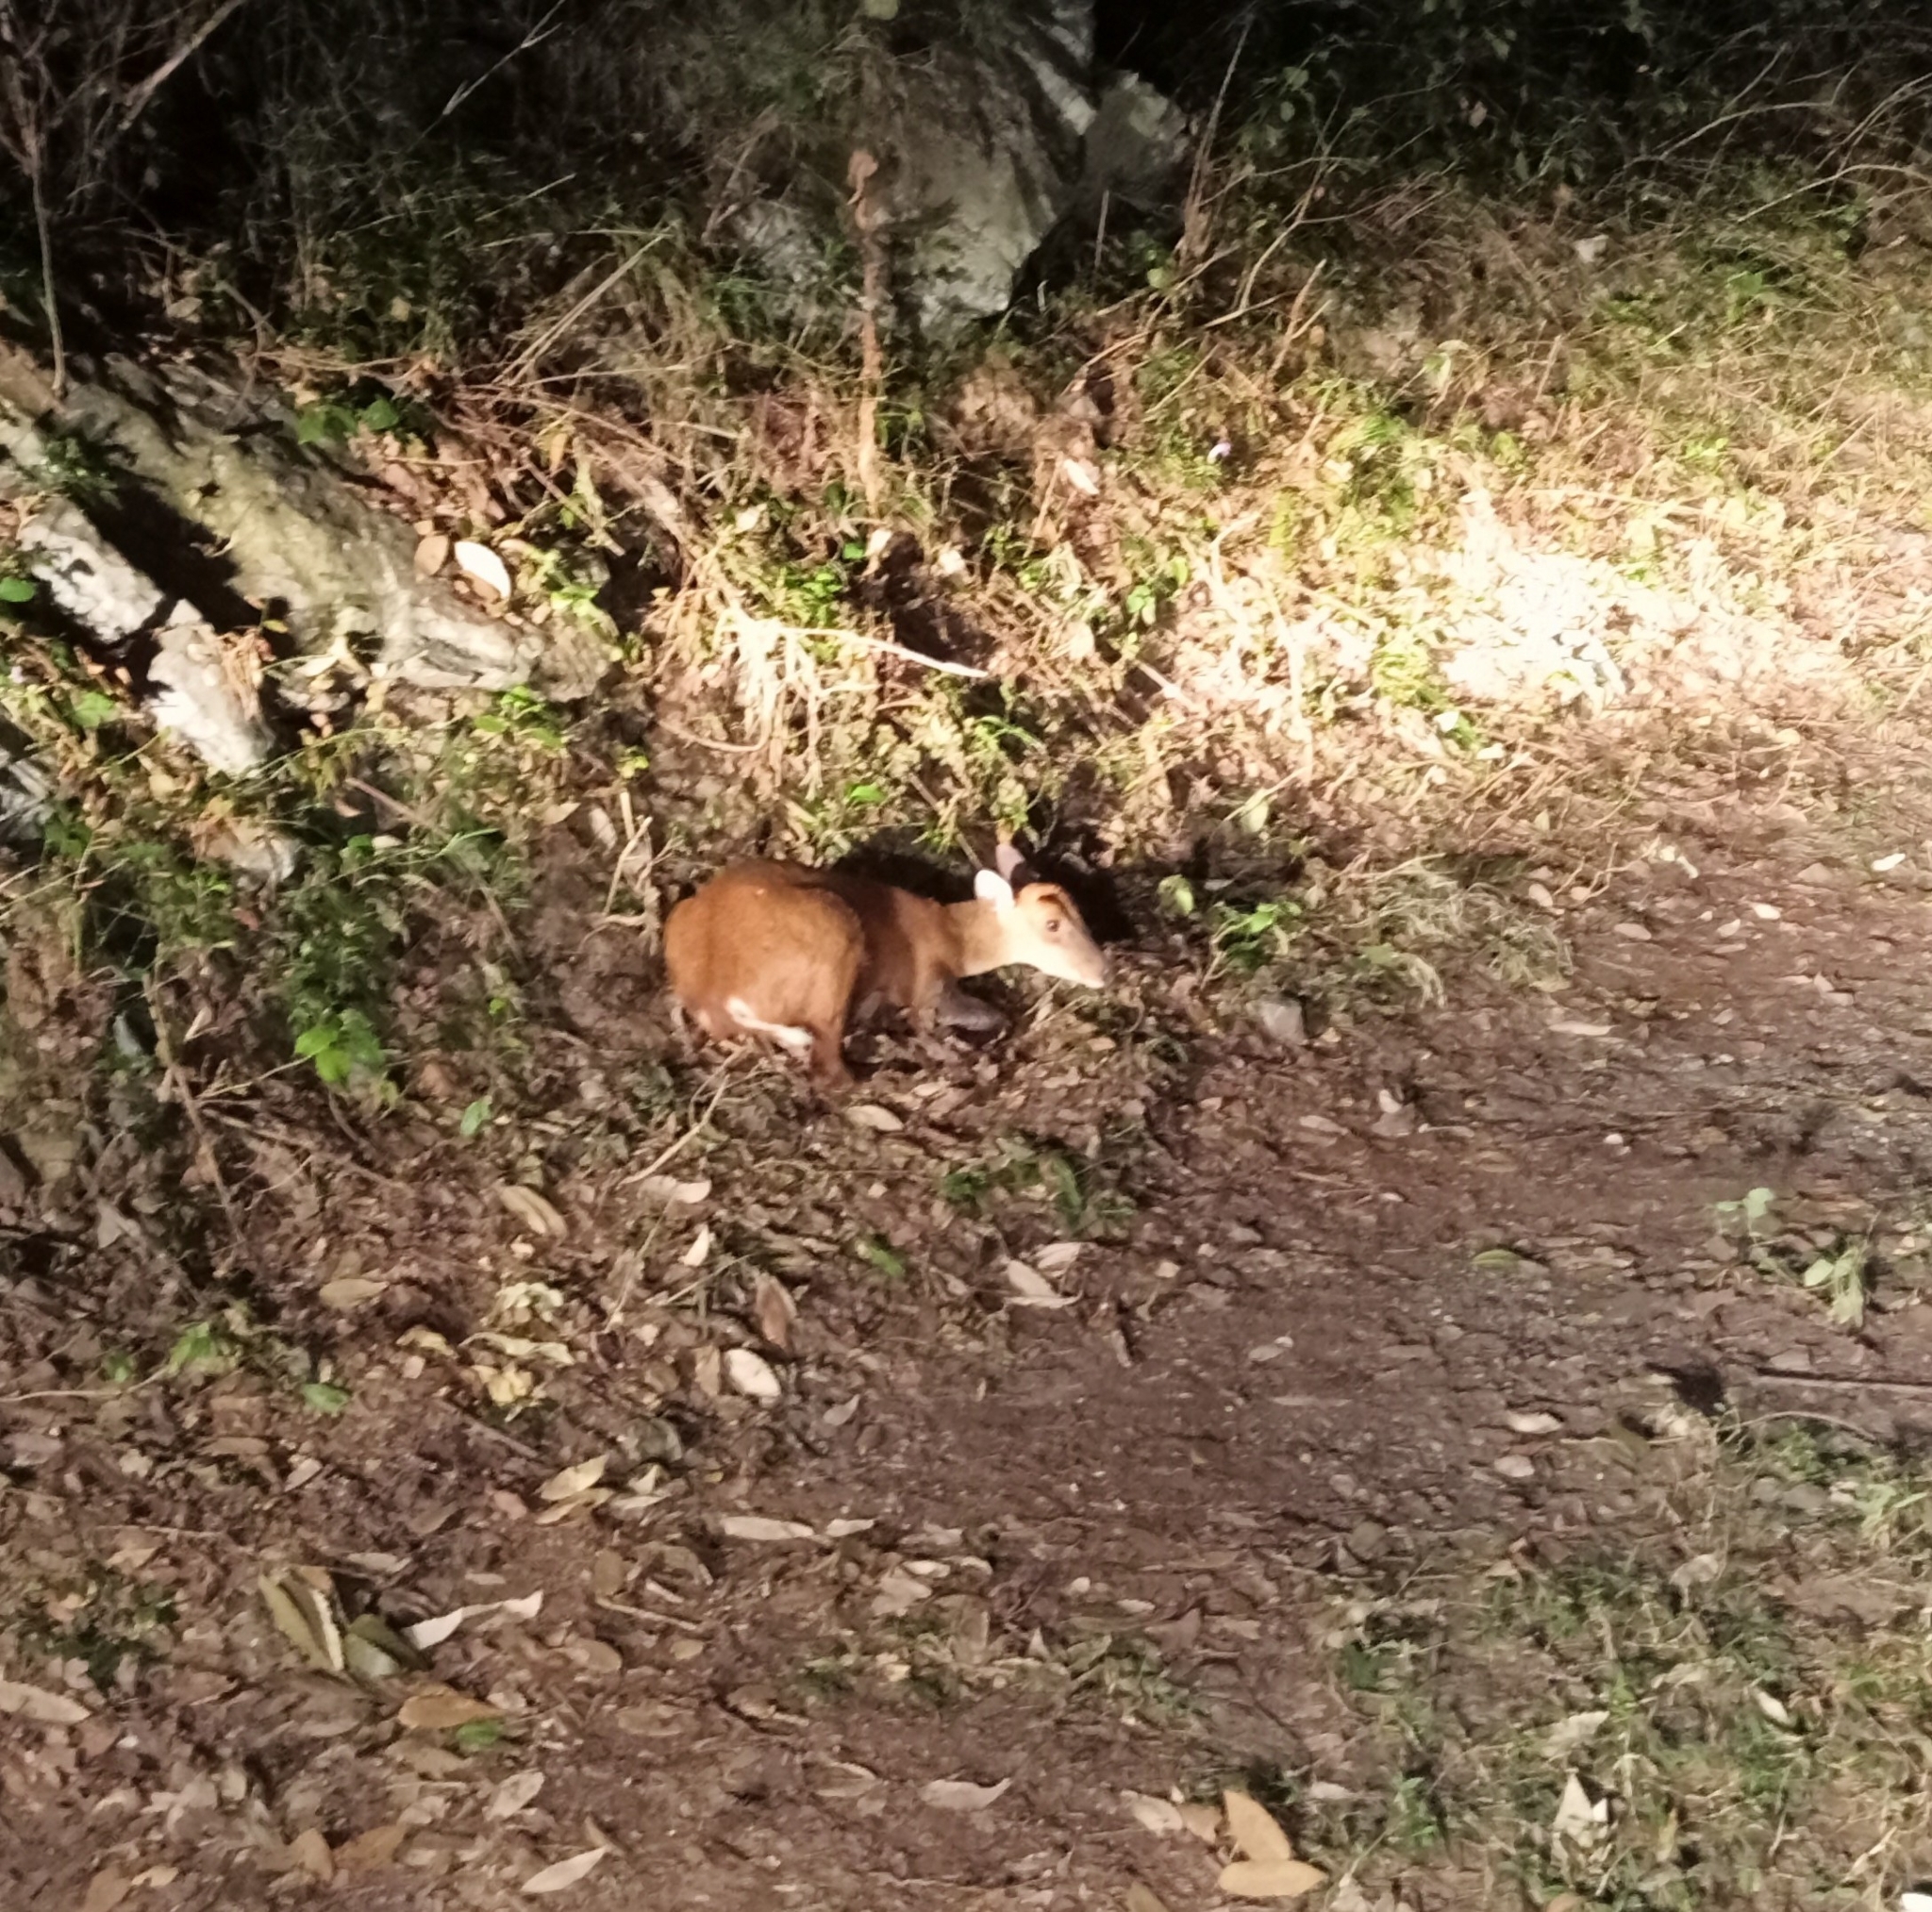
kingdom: Animalia
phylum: Chordata
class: Mammalia
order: Artiodactyla
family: Cervidae
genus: Muntiacus
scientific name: Muntiacus muntjak
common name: Indian muntjac
